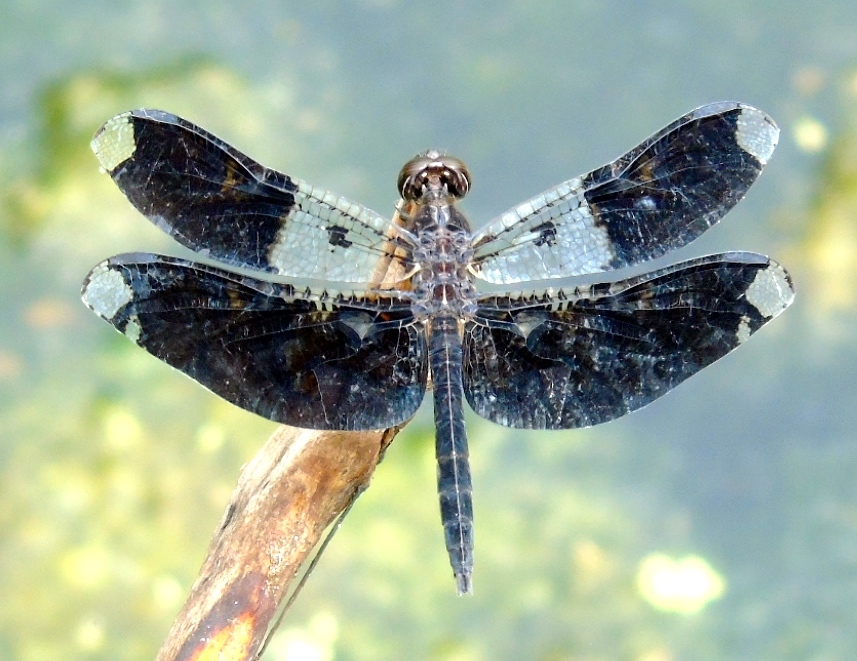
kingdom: Animalia
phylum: Arthropoda
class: Insecta
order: Odonata
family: Libellulidae
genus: Pseudoleon
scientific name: Pseudoleon superbus
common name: Filigree skimmer
